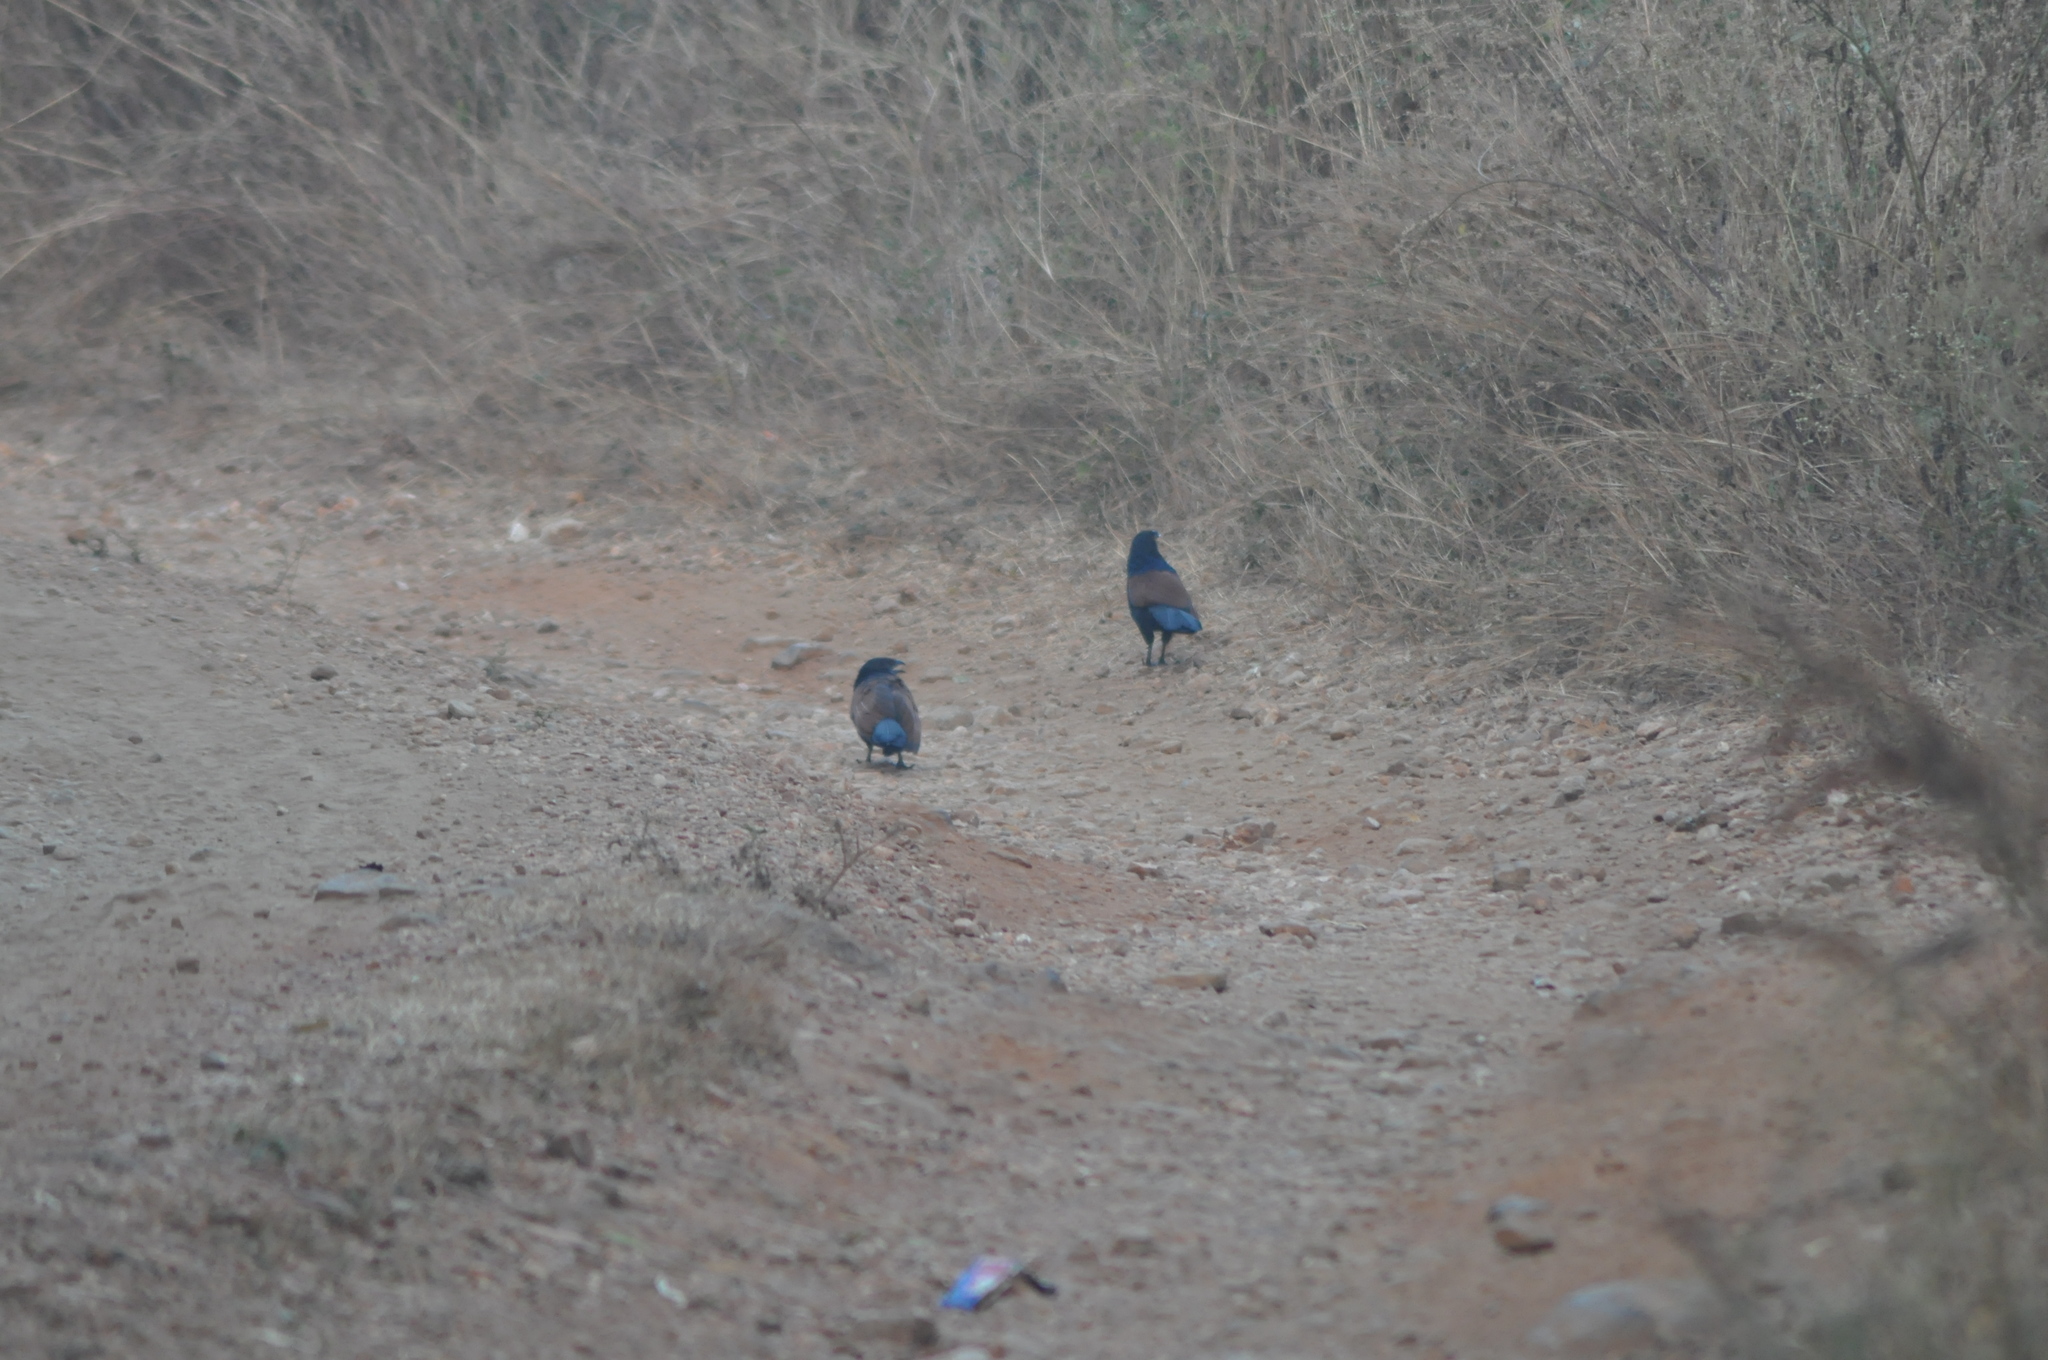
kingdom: Animalia
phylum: Chordata
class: Aves
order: Cuculiformes
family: Cuculidae
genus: Centropus
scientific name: Centropus sinensis
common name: Greater coucal
